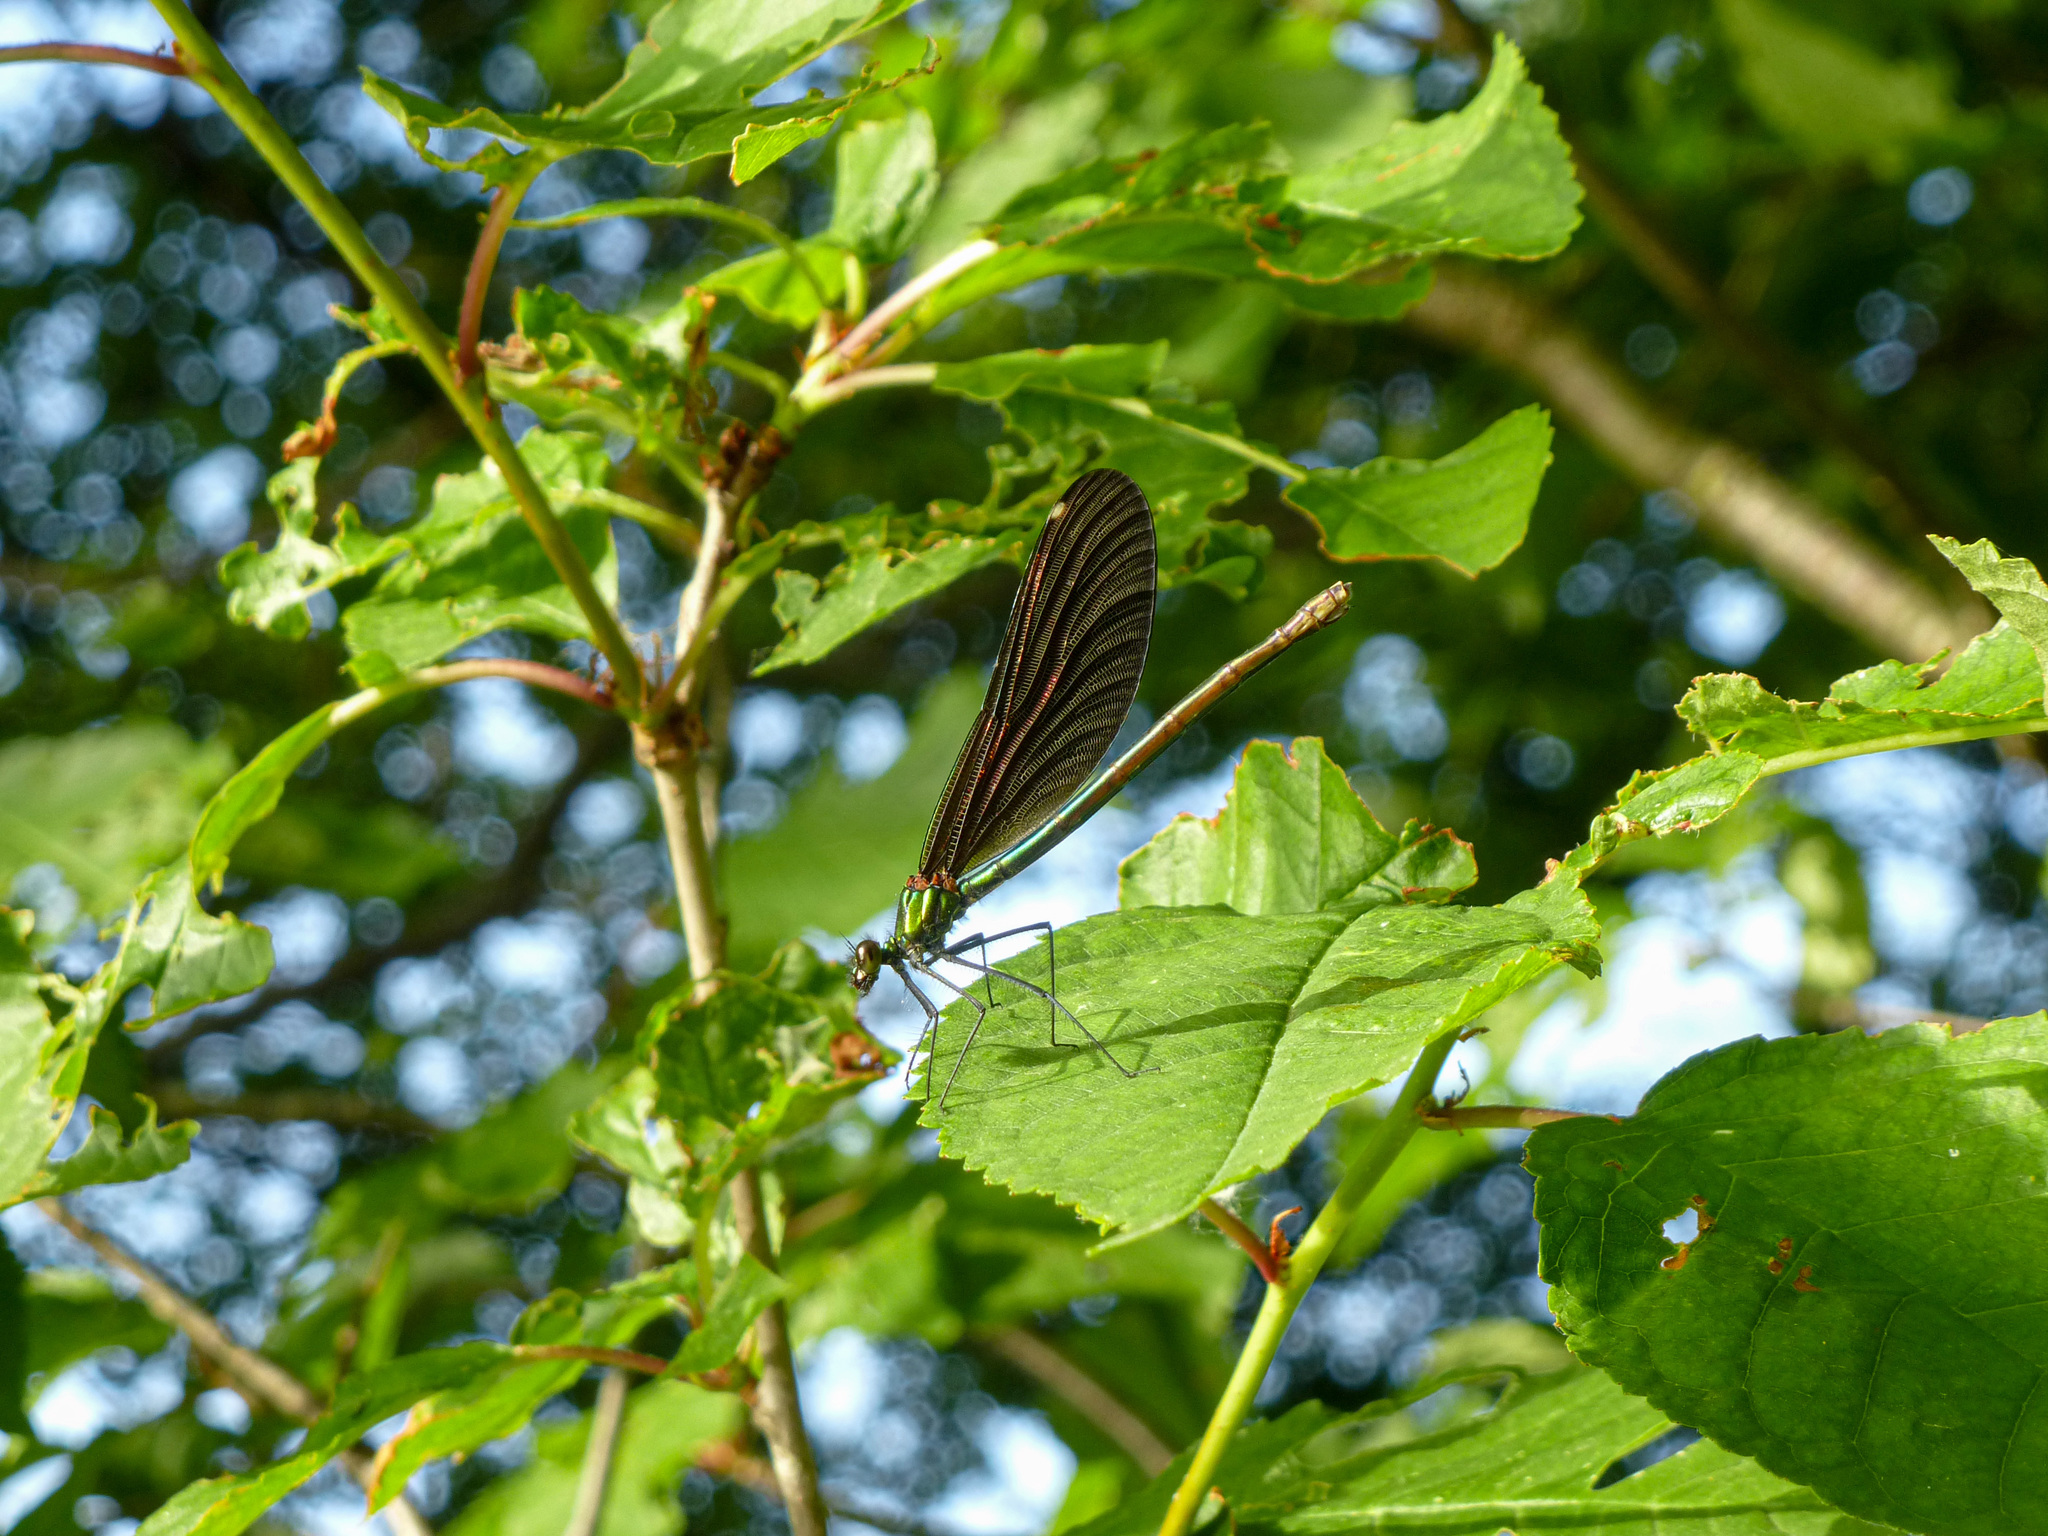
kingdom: Animalia
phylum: Arthropoda
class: Insecta
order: Odonata
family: Calopterygidae
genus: Calopteryx
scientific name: Calopteryx virgo
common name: Beautiful demoiselle
